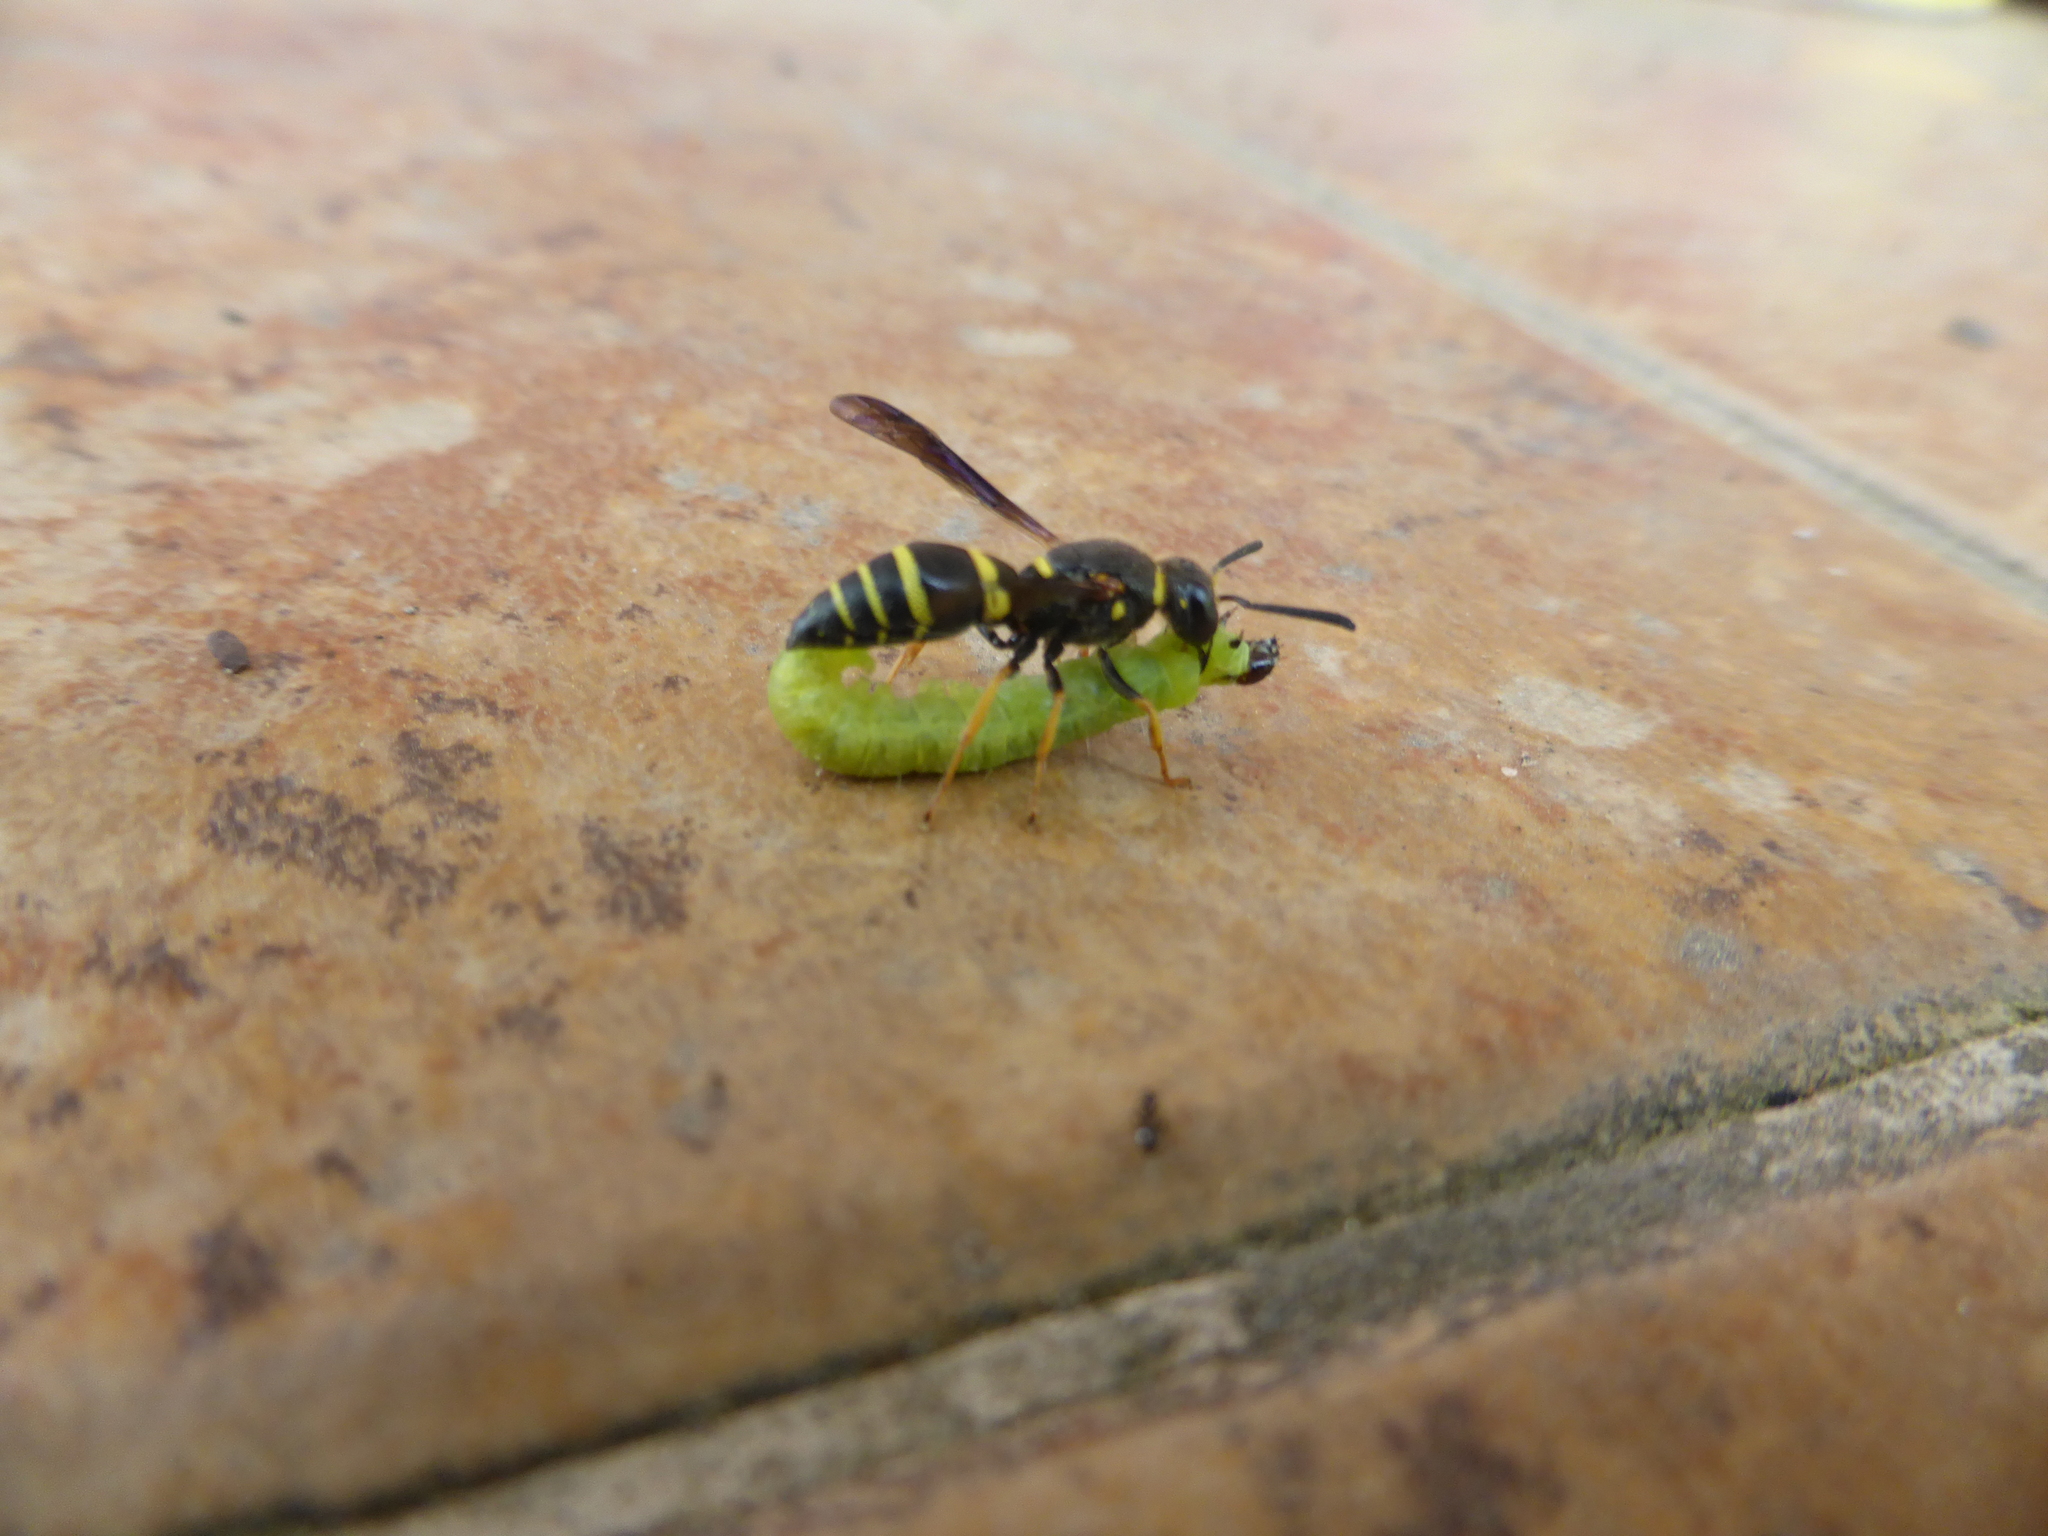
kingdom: Animalia
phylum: Arthropoda
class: Insecta
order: Hymenoptera
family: Eumenidae
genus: Euodynerus
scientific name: Euodynerus foraminatus
